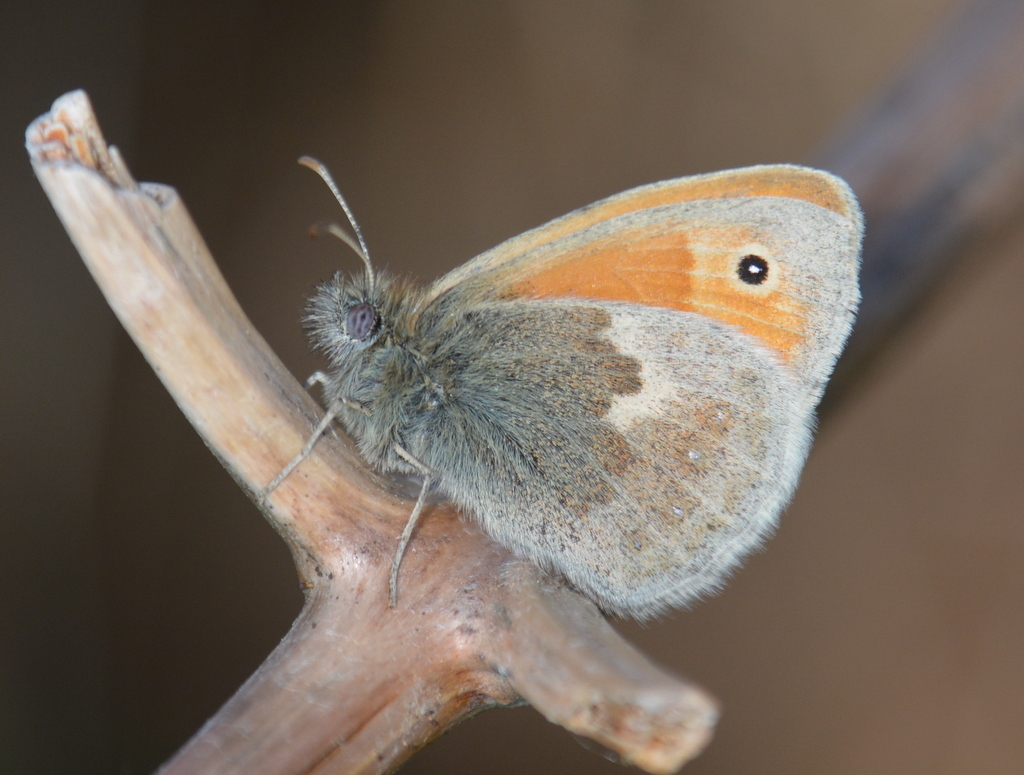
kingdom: Animalia
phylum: Arthropoda
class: Insecta
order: Lepidoptera
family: Nymphalidae
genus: Coenonympha
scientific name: Coenonympha pamphilus
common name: Small heath
